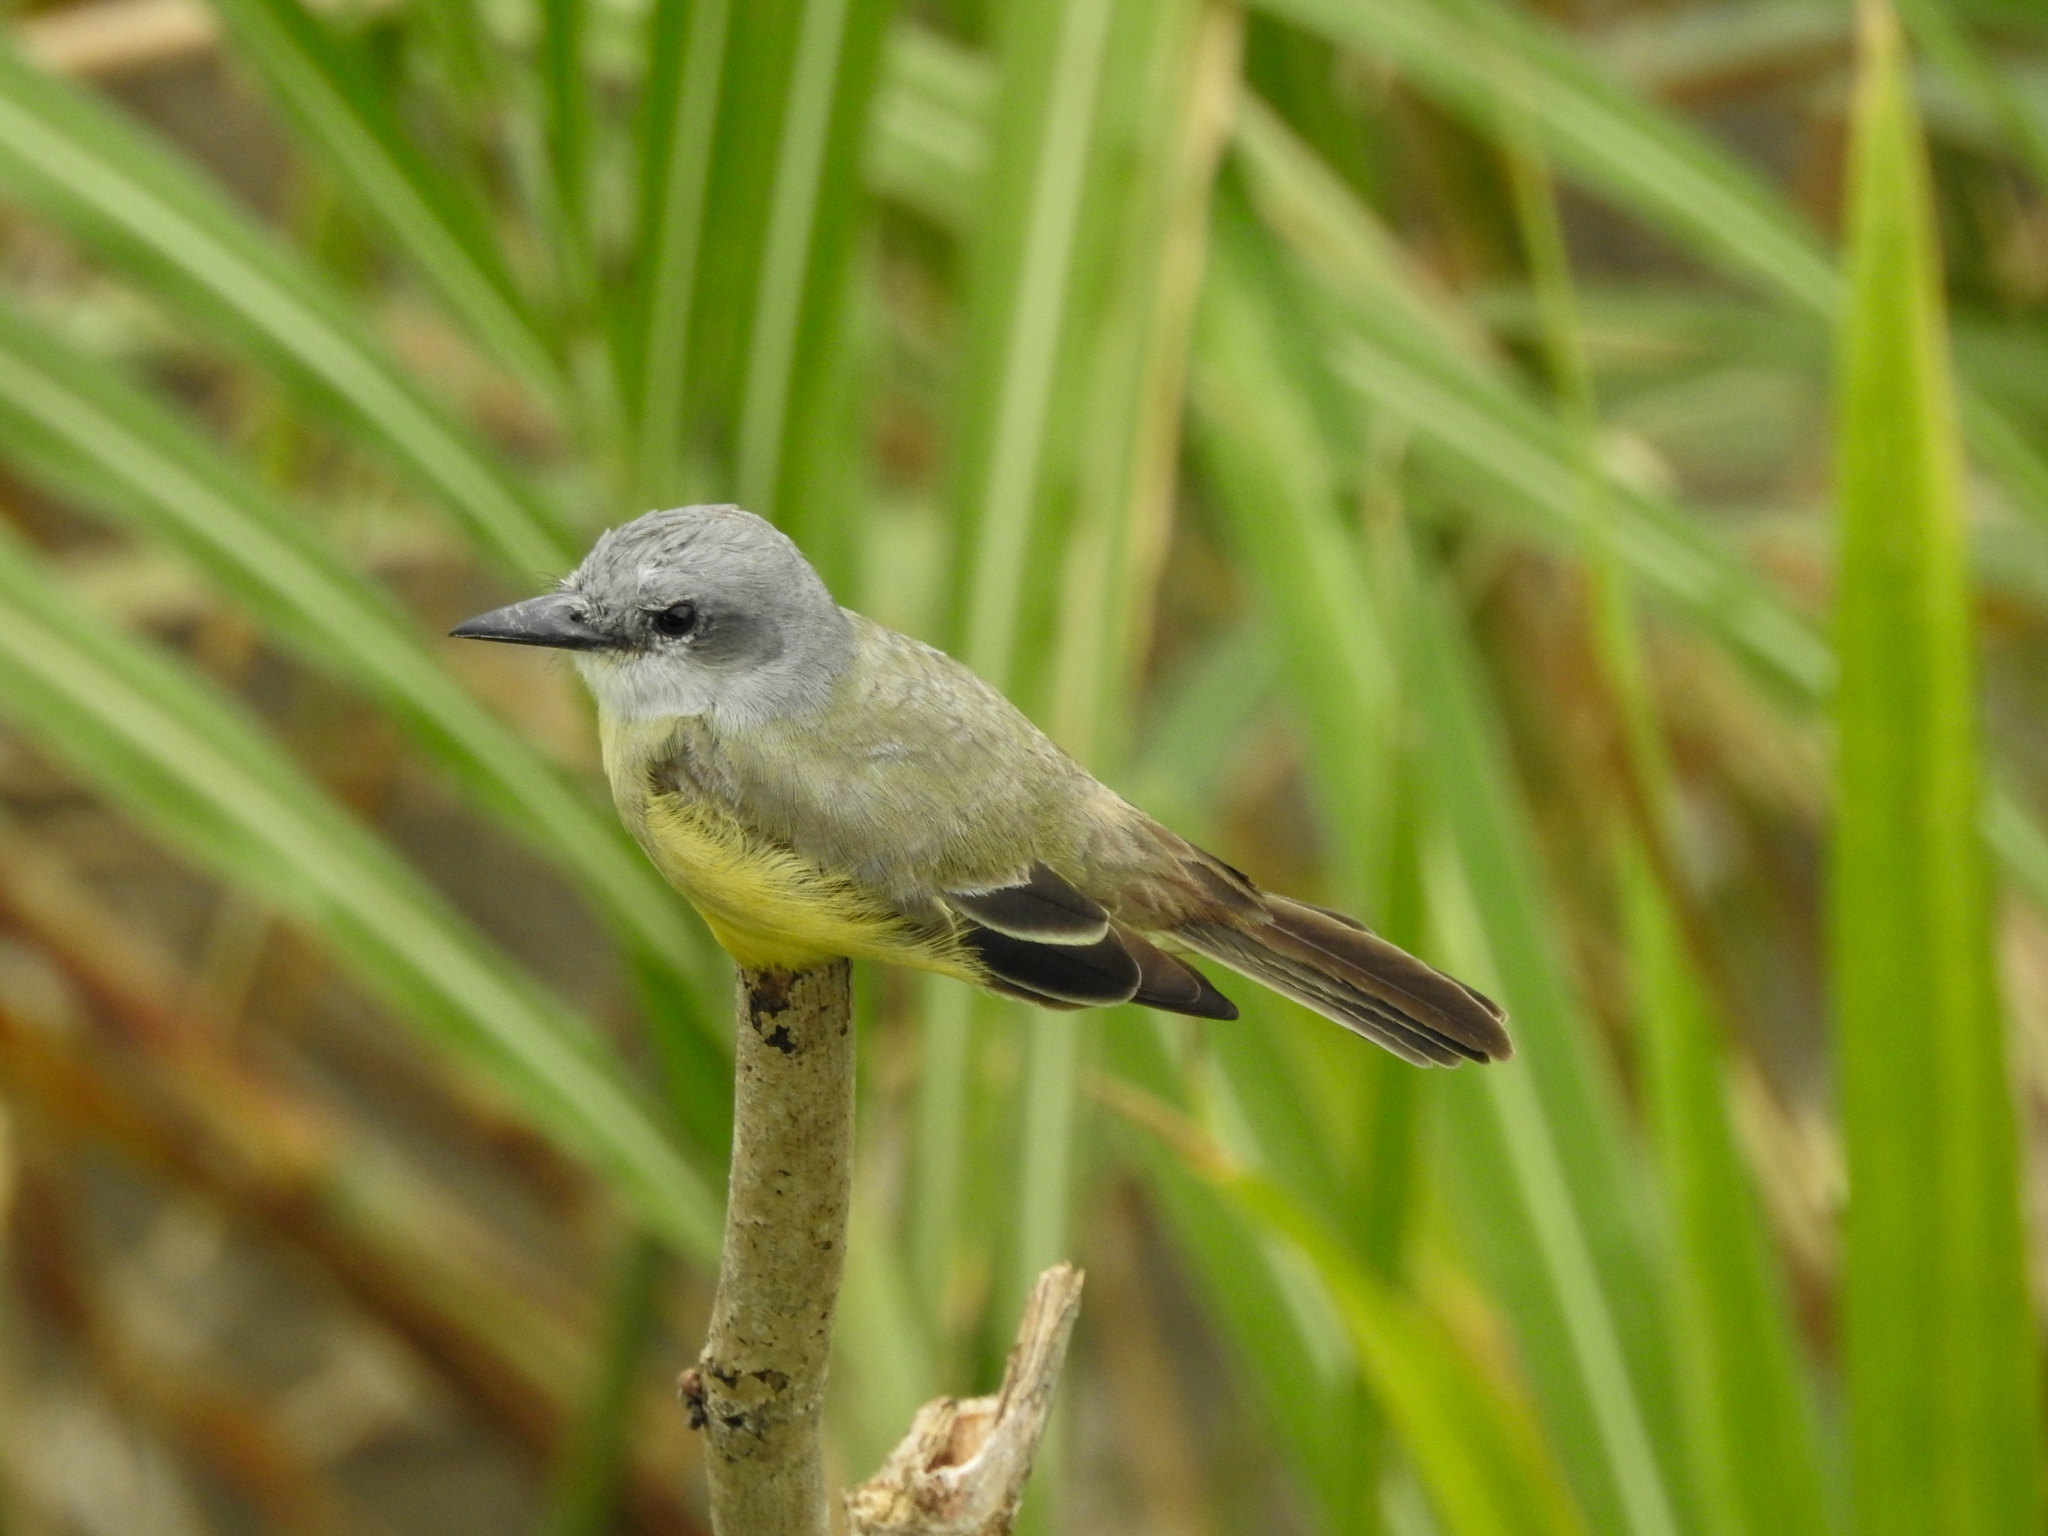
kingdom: Animalia
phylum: Chordata
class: Aves
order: Passeriformes
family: Tyrannidae
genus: Tyrannus
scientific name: Tyrannus melancholicus
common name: Tropical kingbird
